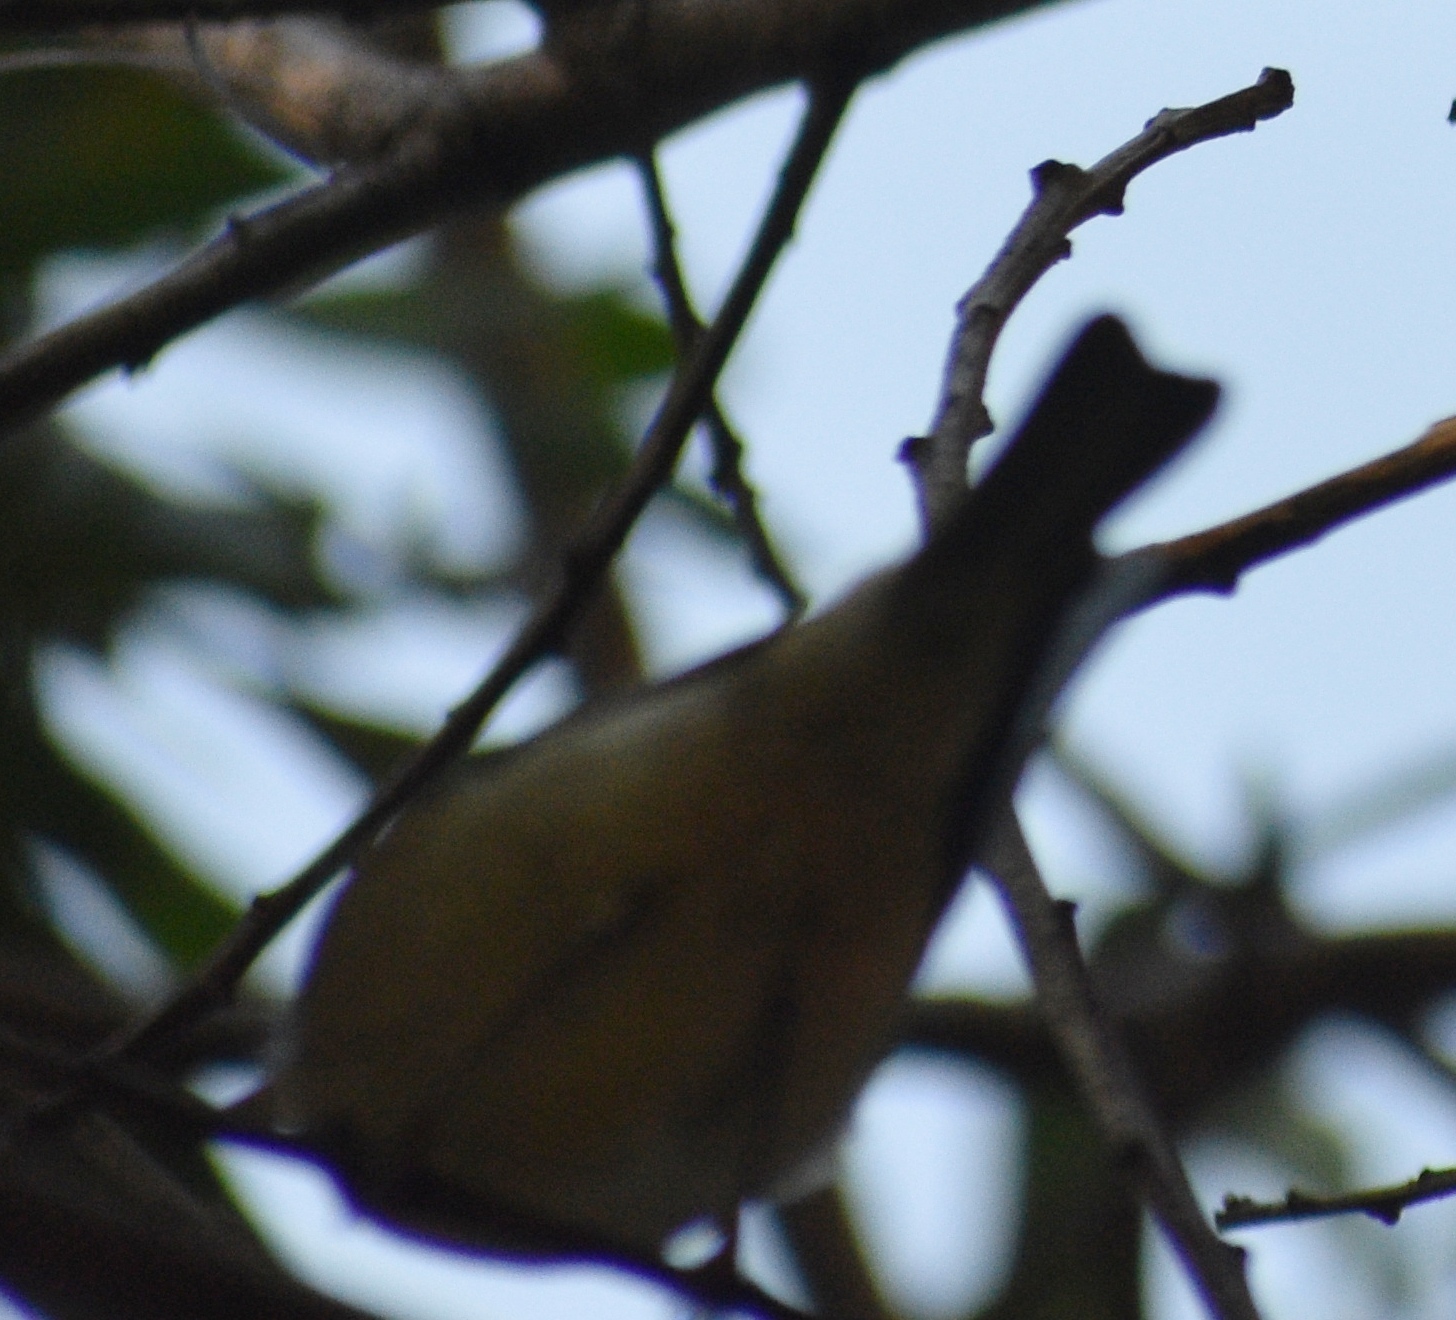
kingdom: Animalia
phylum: Chordata
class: Aves
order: Passeriformes
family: Fringillidae
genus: Spinus
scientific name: Spinus psaltria
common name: Lesser goldfinch
